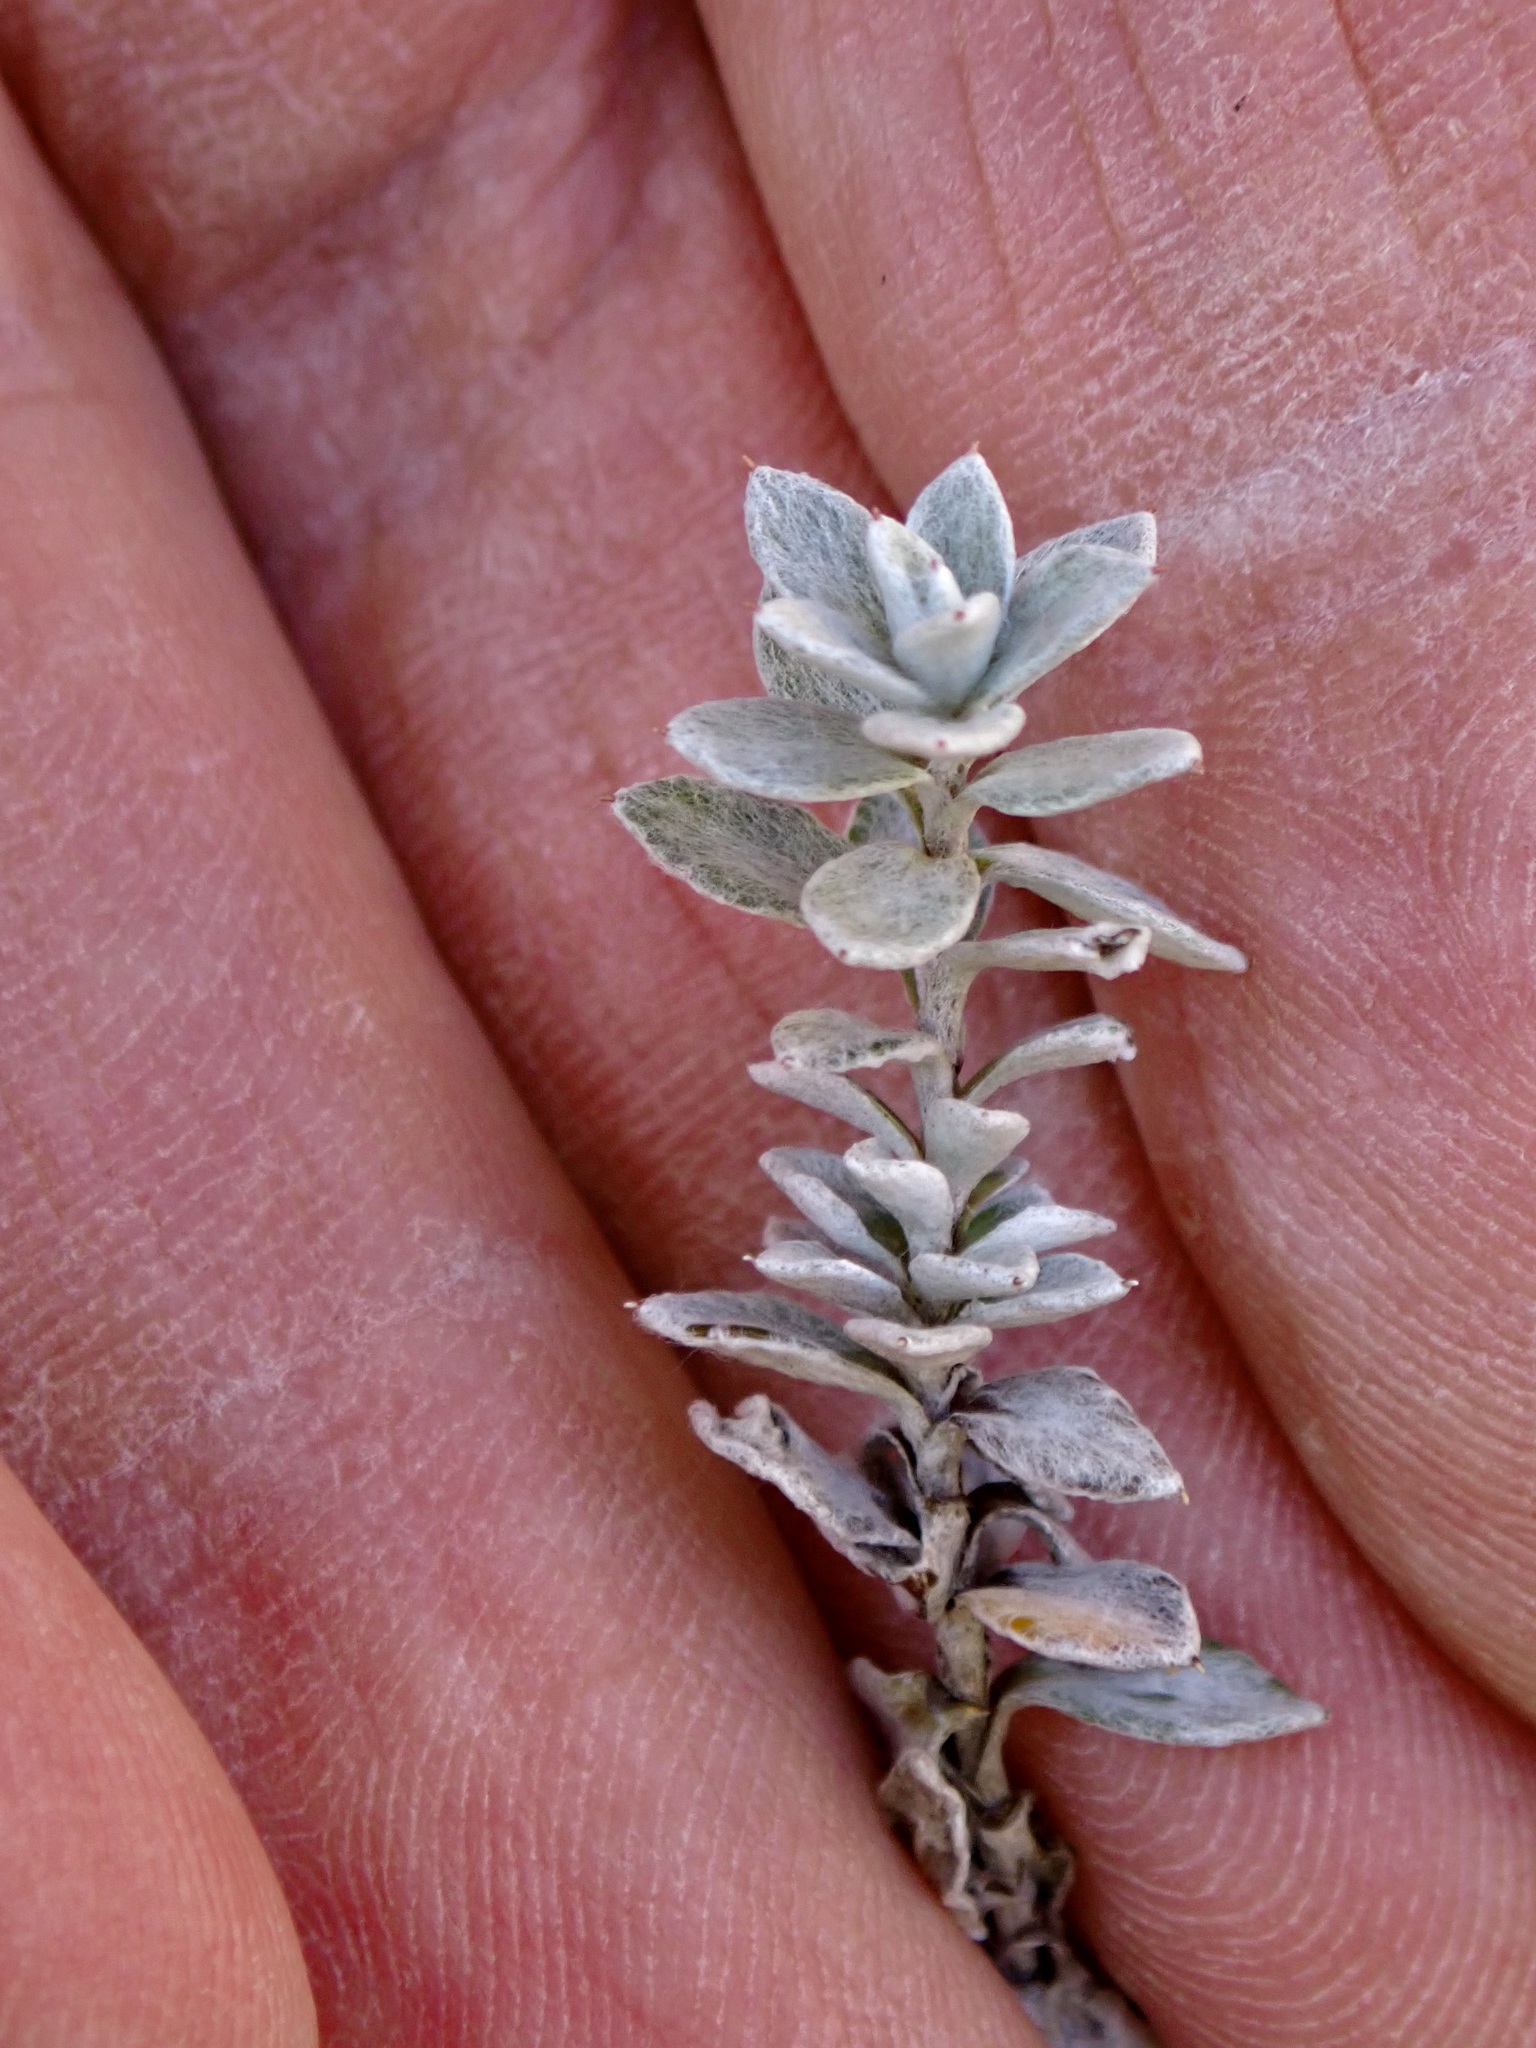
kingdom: Plantae
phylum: Tracheophyta
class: Magnoliopsida
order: Asterales
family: Asteraceae
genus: Leucogenes
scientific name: Leucogenes grandiceps
